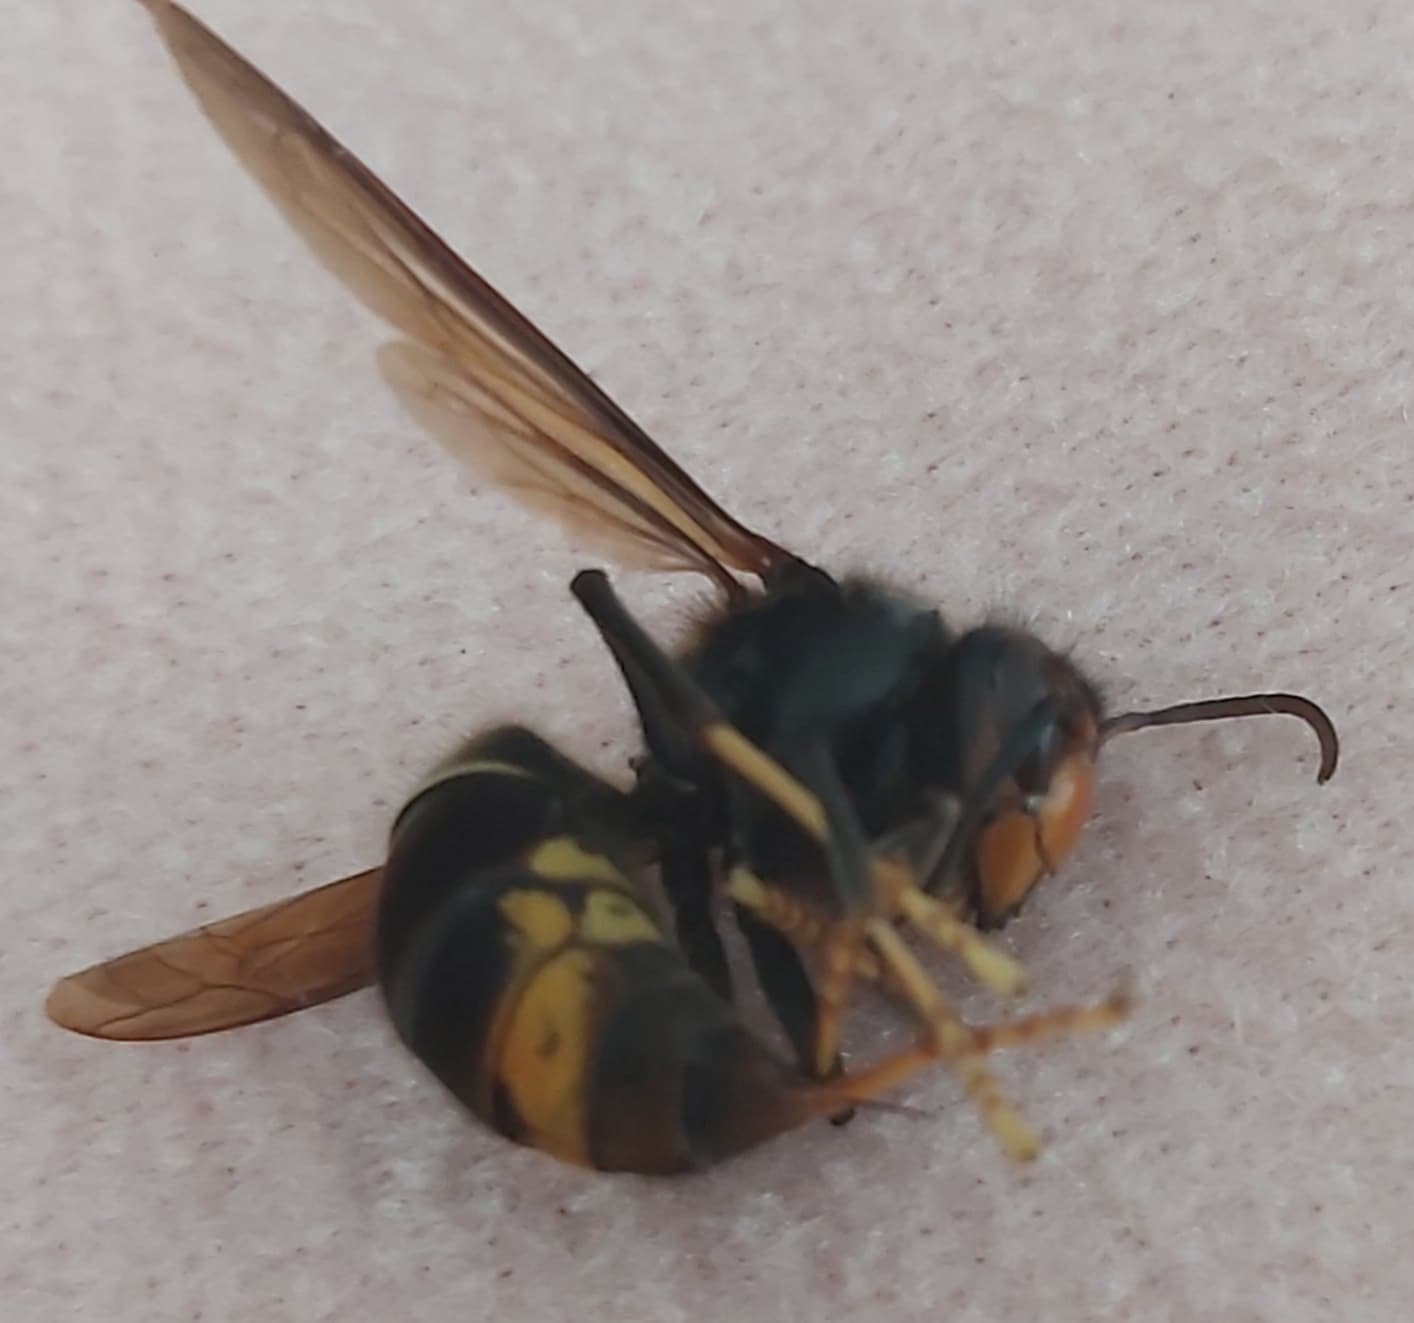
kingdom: Animalia
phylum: Arthropoda
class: Insecta
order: Hymenoptera
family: Vespidae
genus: Vespa
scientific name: Vespa velutina
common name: Asian hornet
